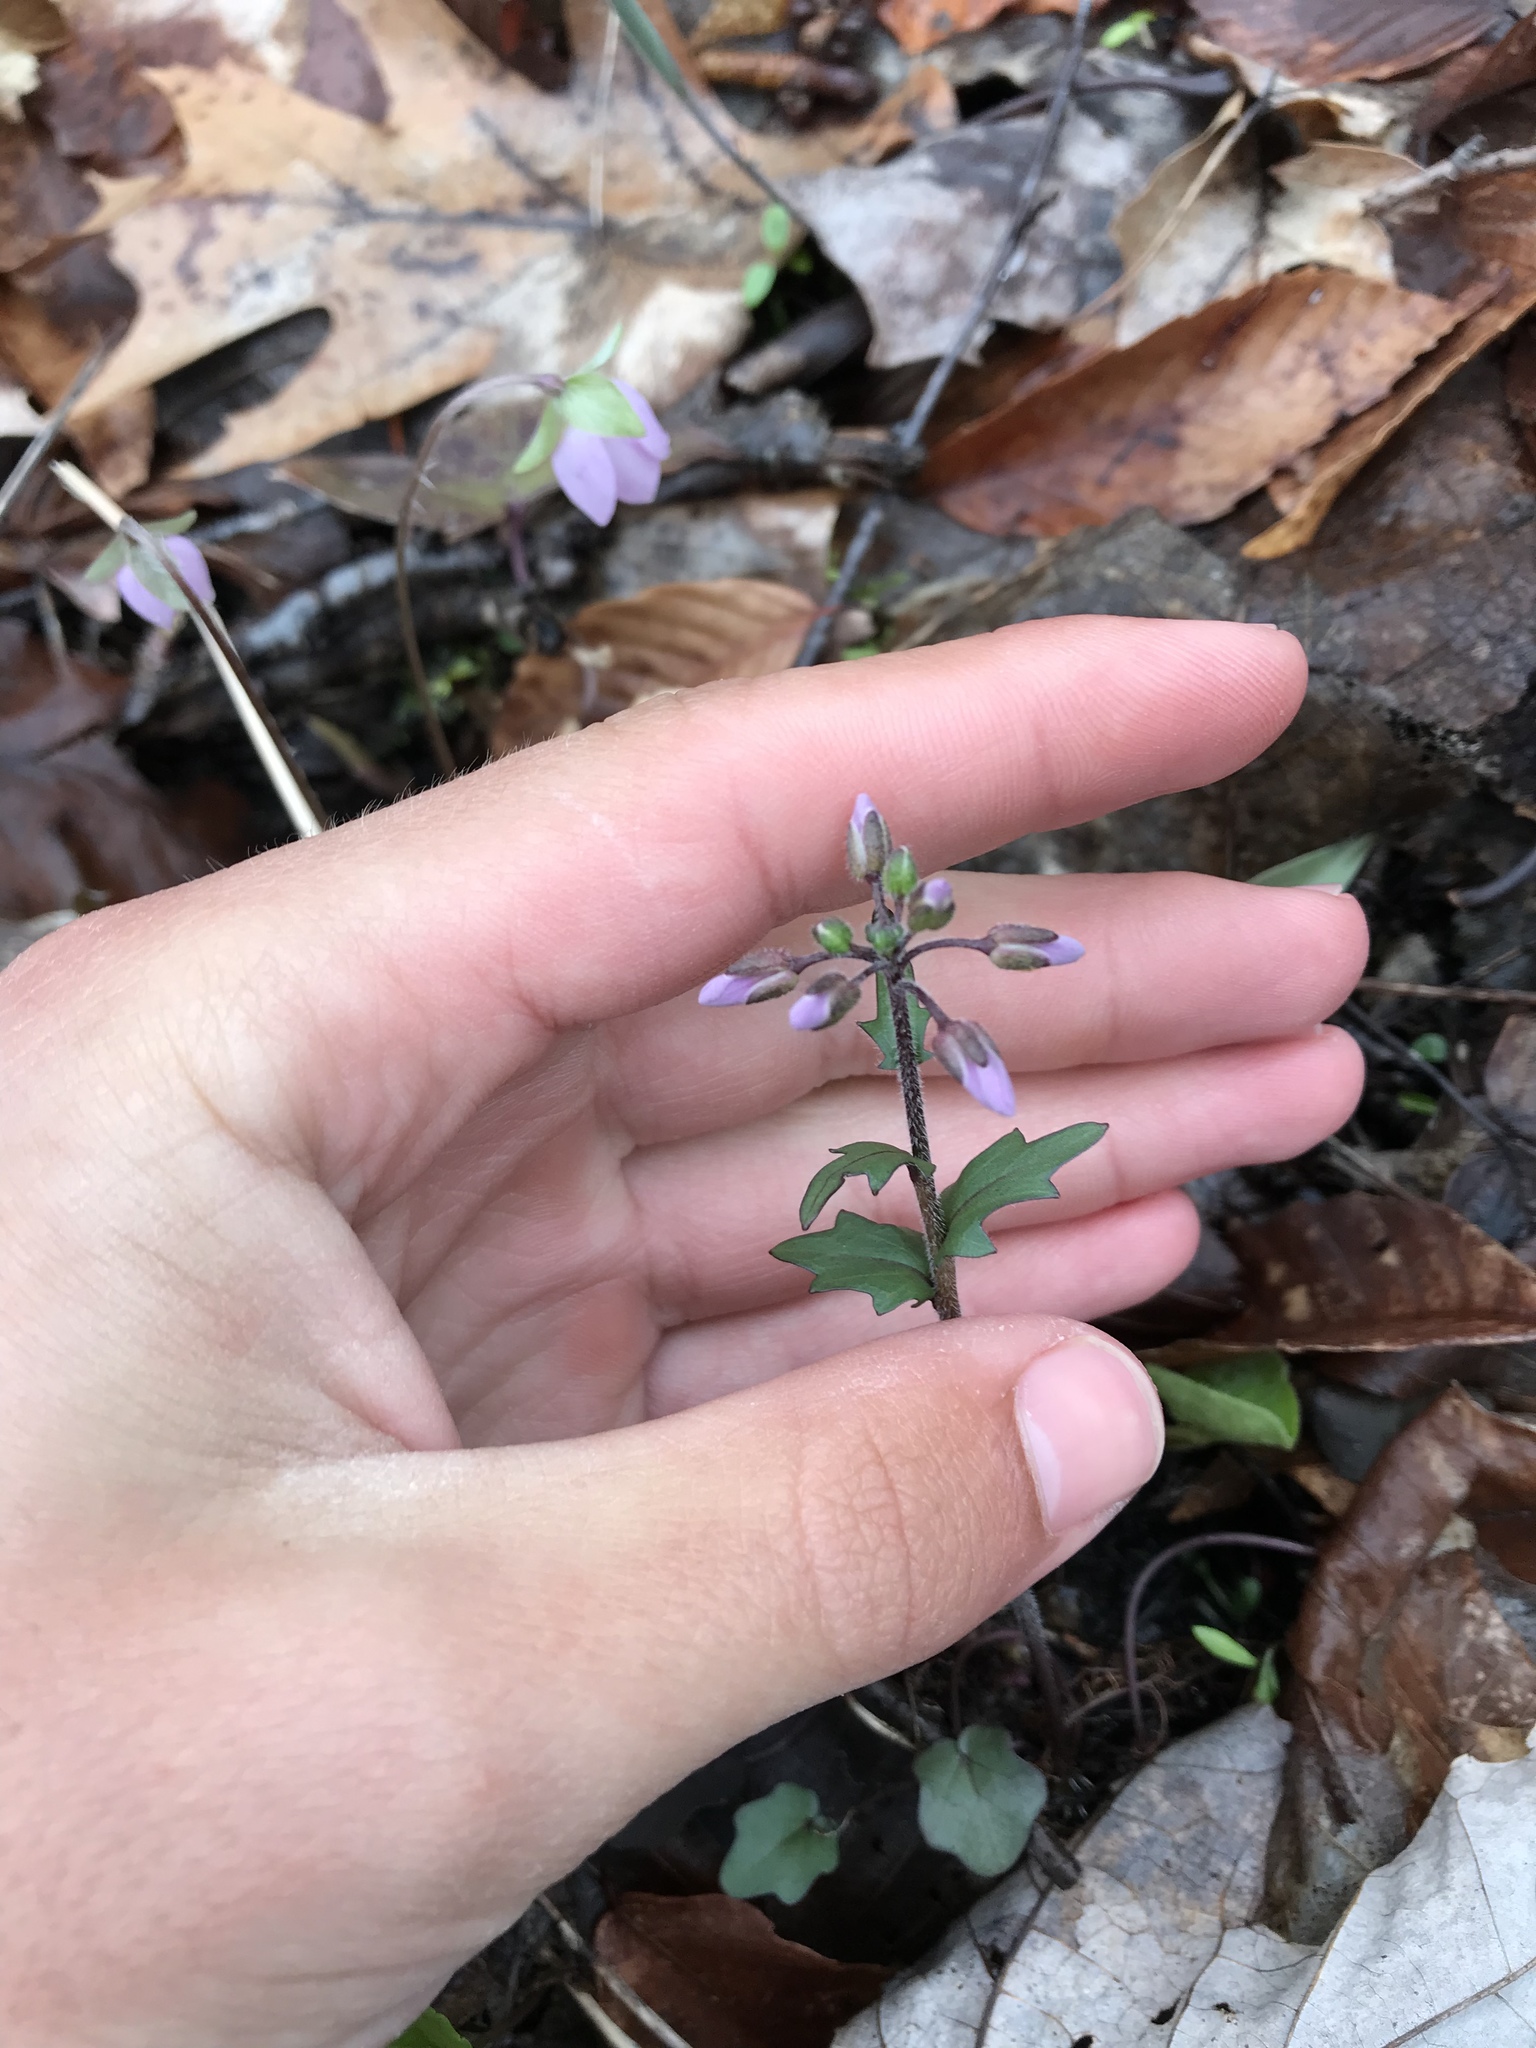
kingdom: Plantae
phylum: Tracheophyta
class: Magnoliopsida
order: Brassicales
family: Brassicaceae
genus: Cardamine
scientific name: Cardamine douglassii
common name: Purple cress
